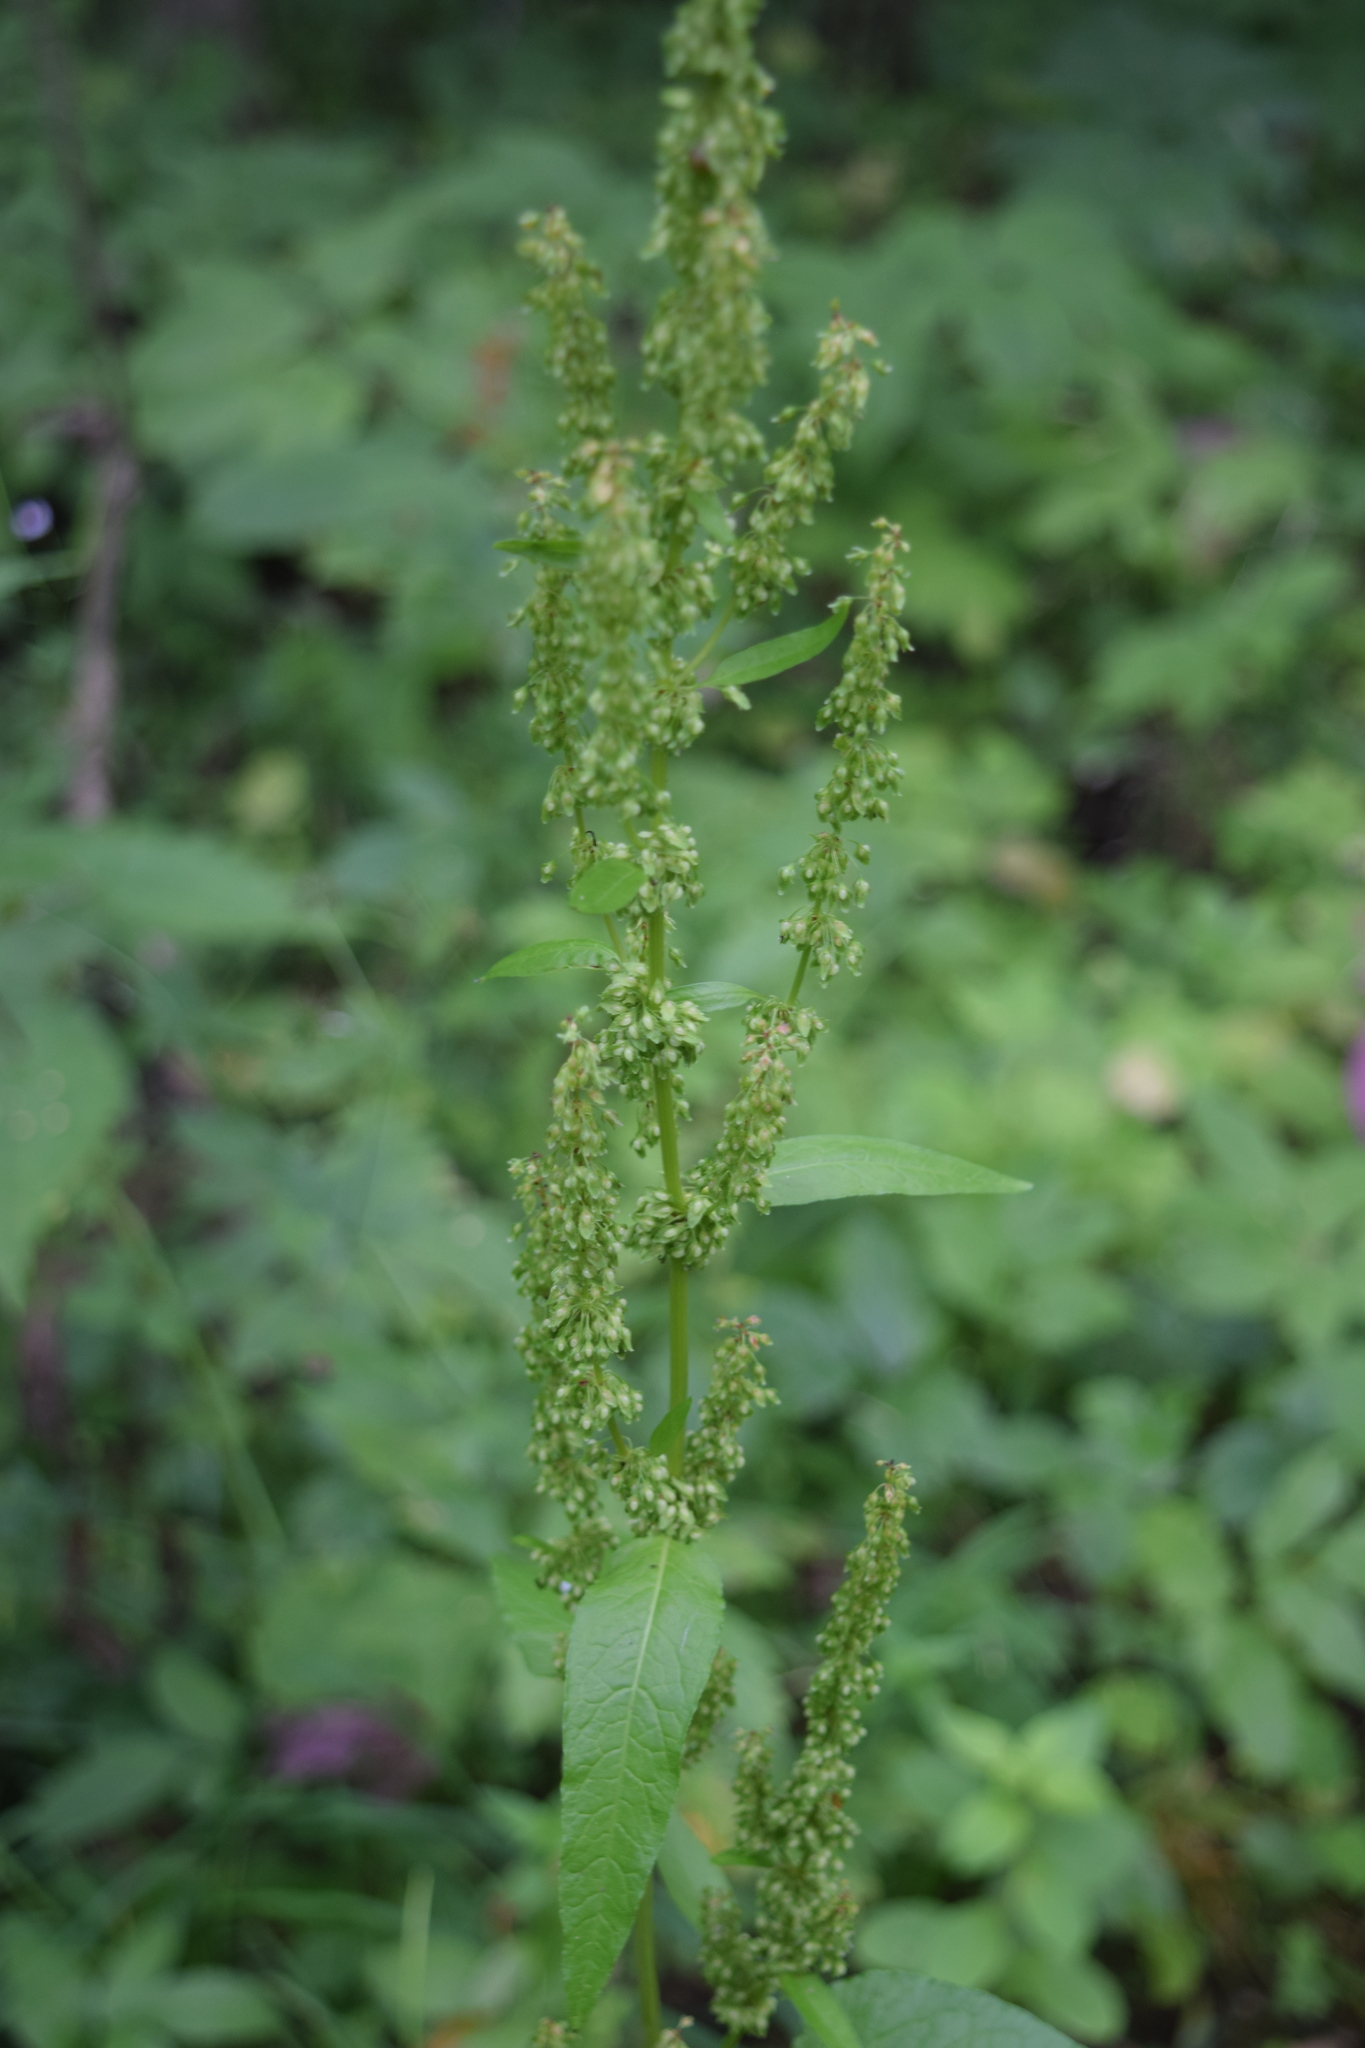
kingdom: Plantae
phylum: Tracheophyta
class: Magnoliopsida
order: Caryophyllales
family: Polygonaceae
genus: Rumex
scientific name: Rumex obtusifolius
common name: Bitter dock
